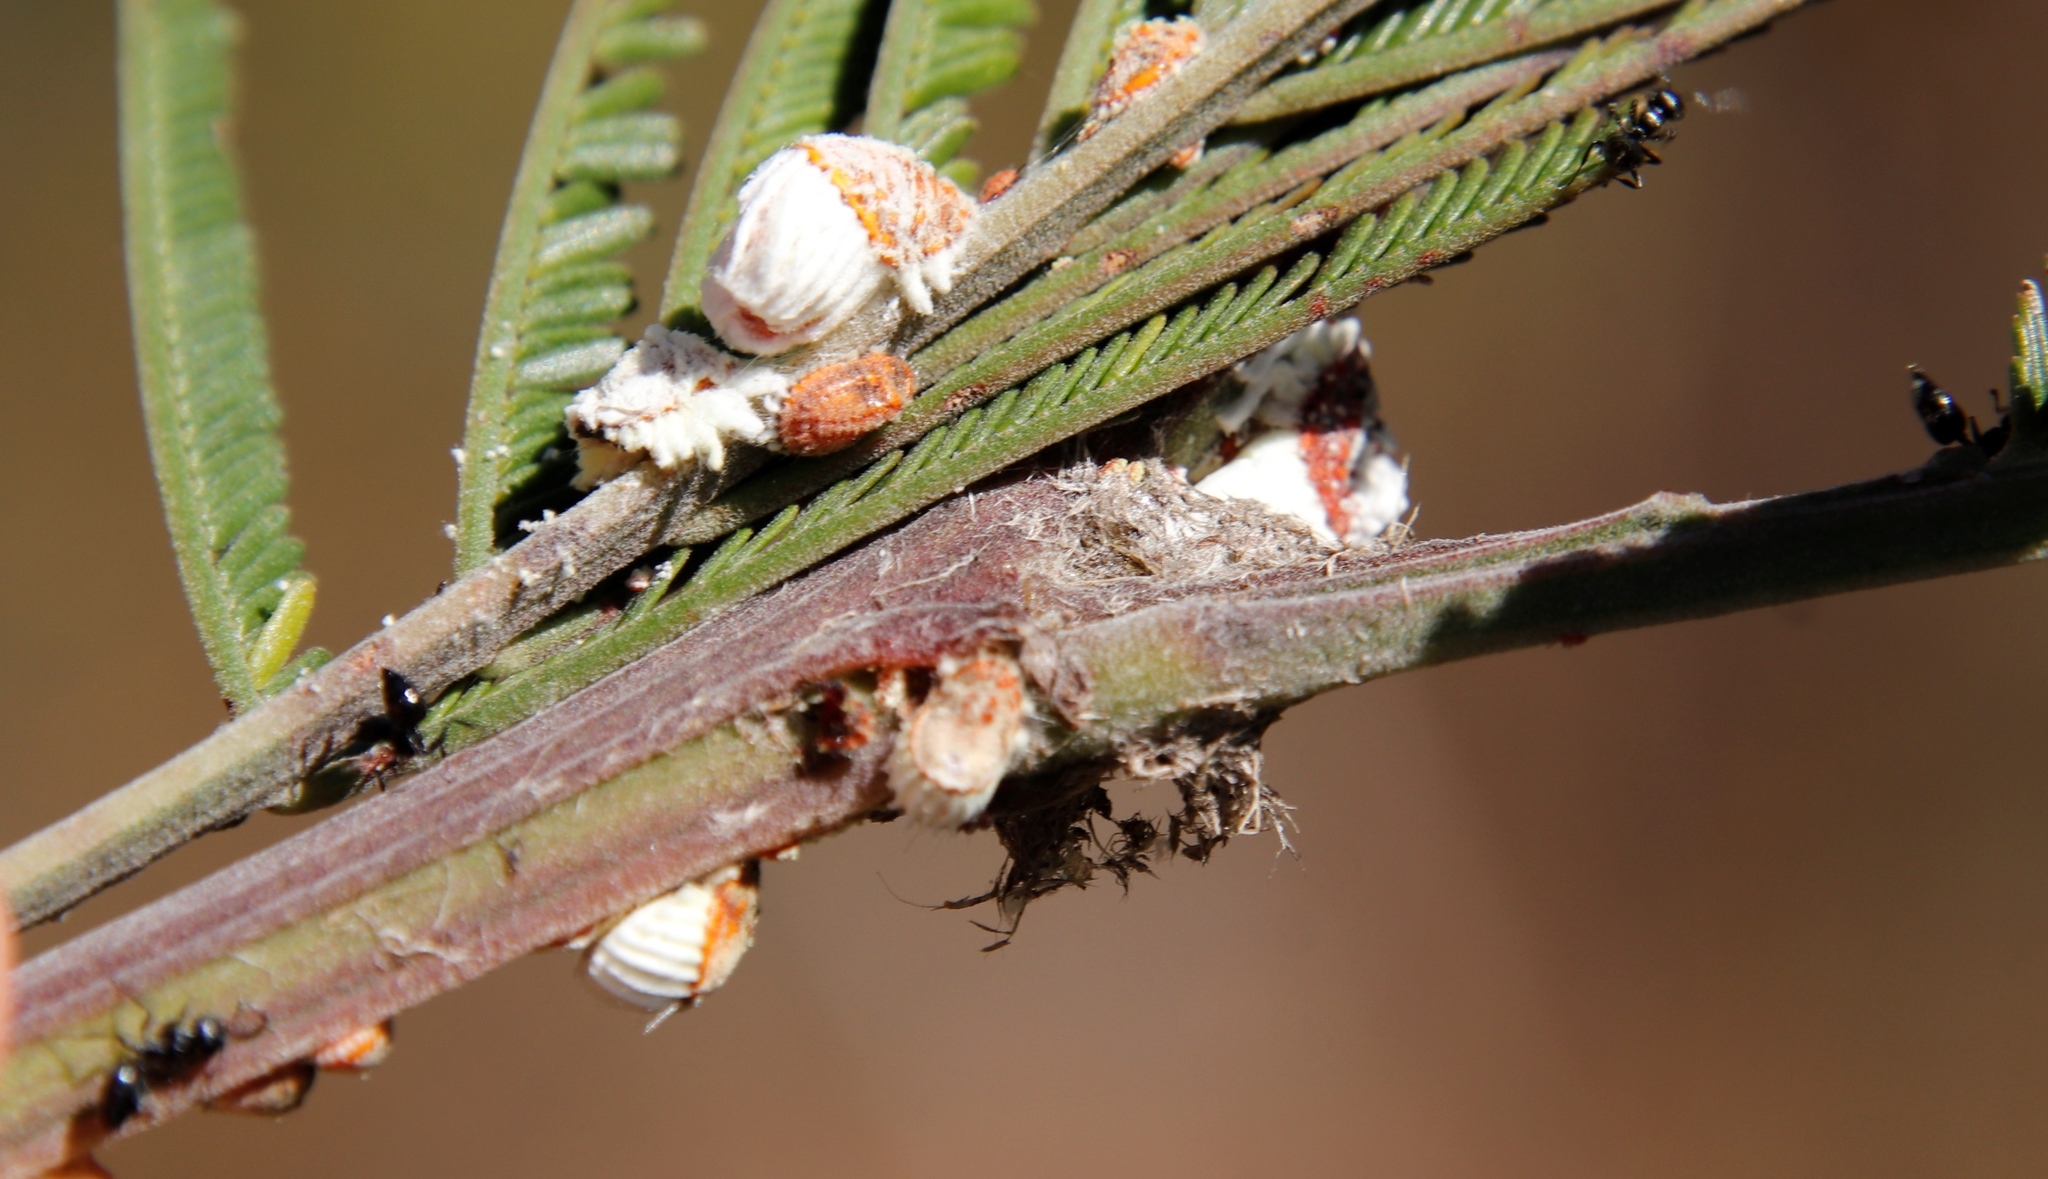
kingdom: Animalia
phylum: Arthropoda
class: Insecta
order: Hymenoptera
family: Formicidae
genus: Crematogaster
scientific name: Crematogaster peringueyi
